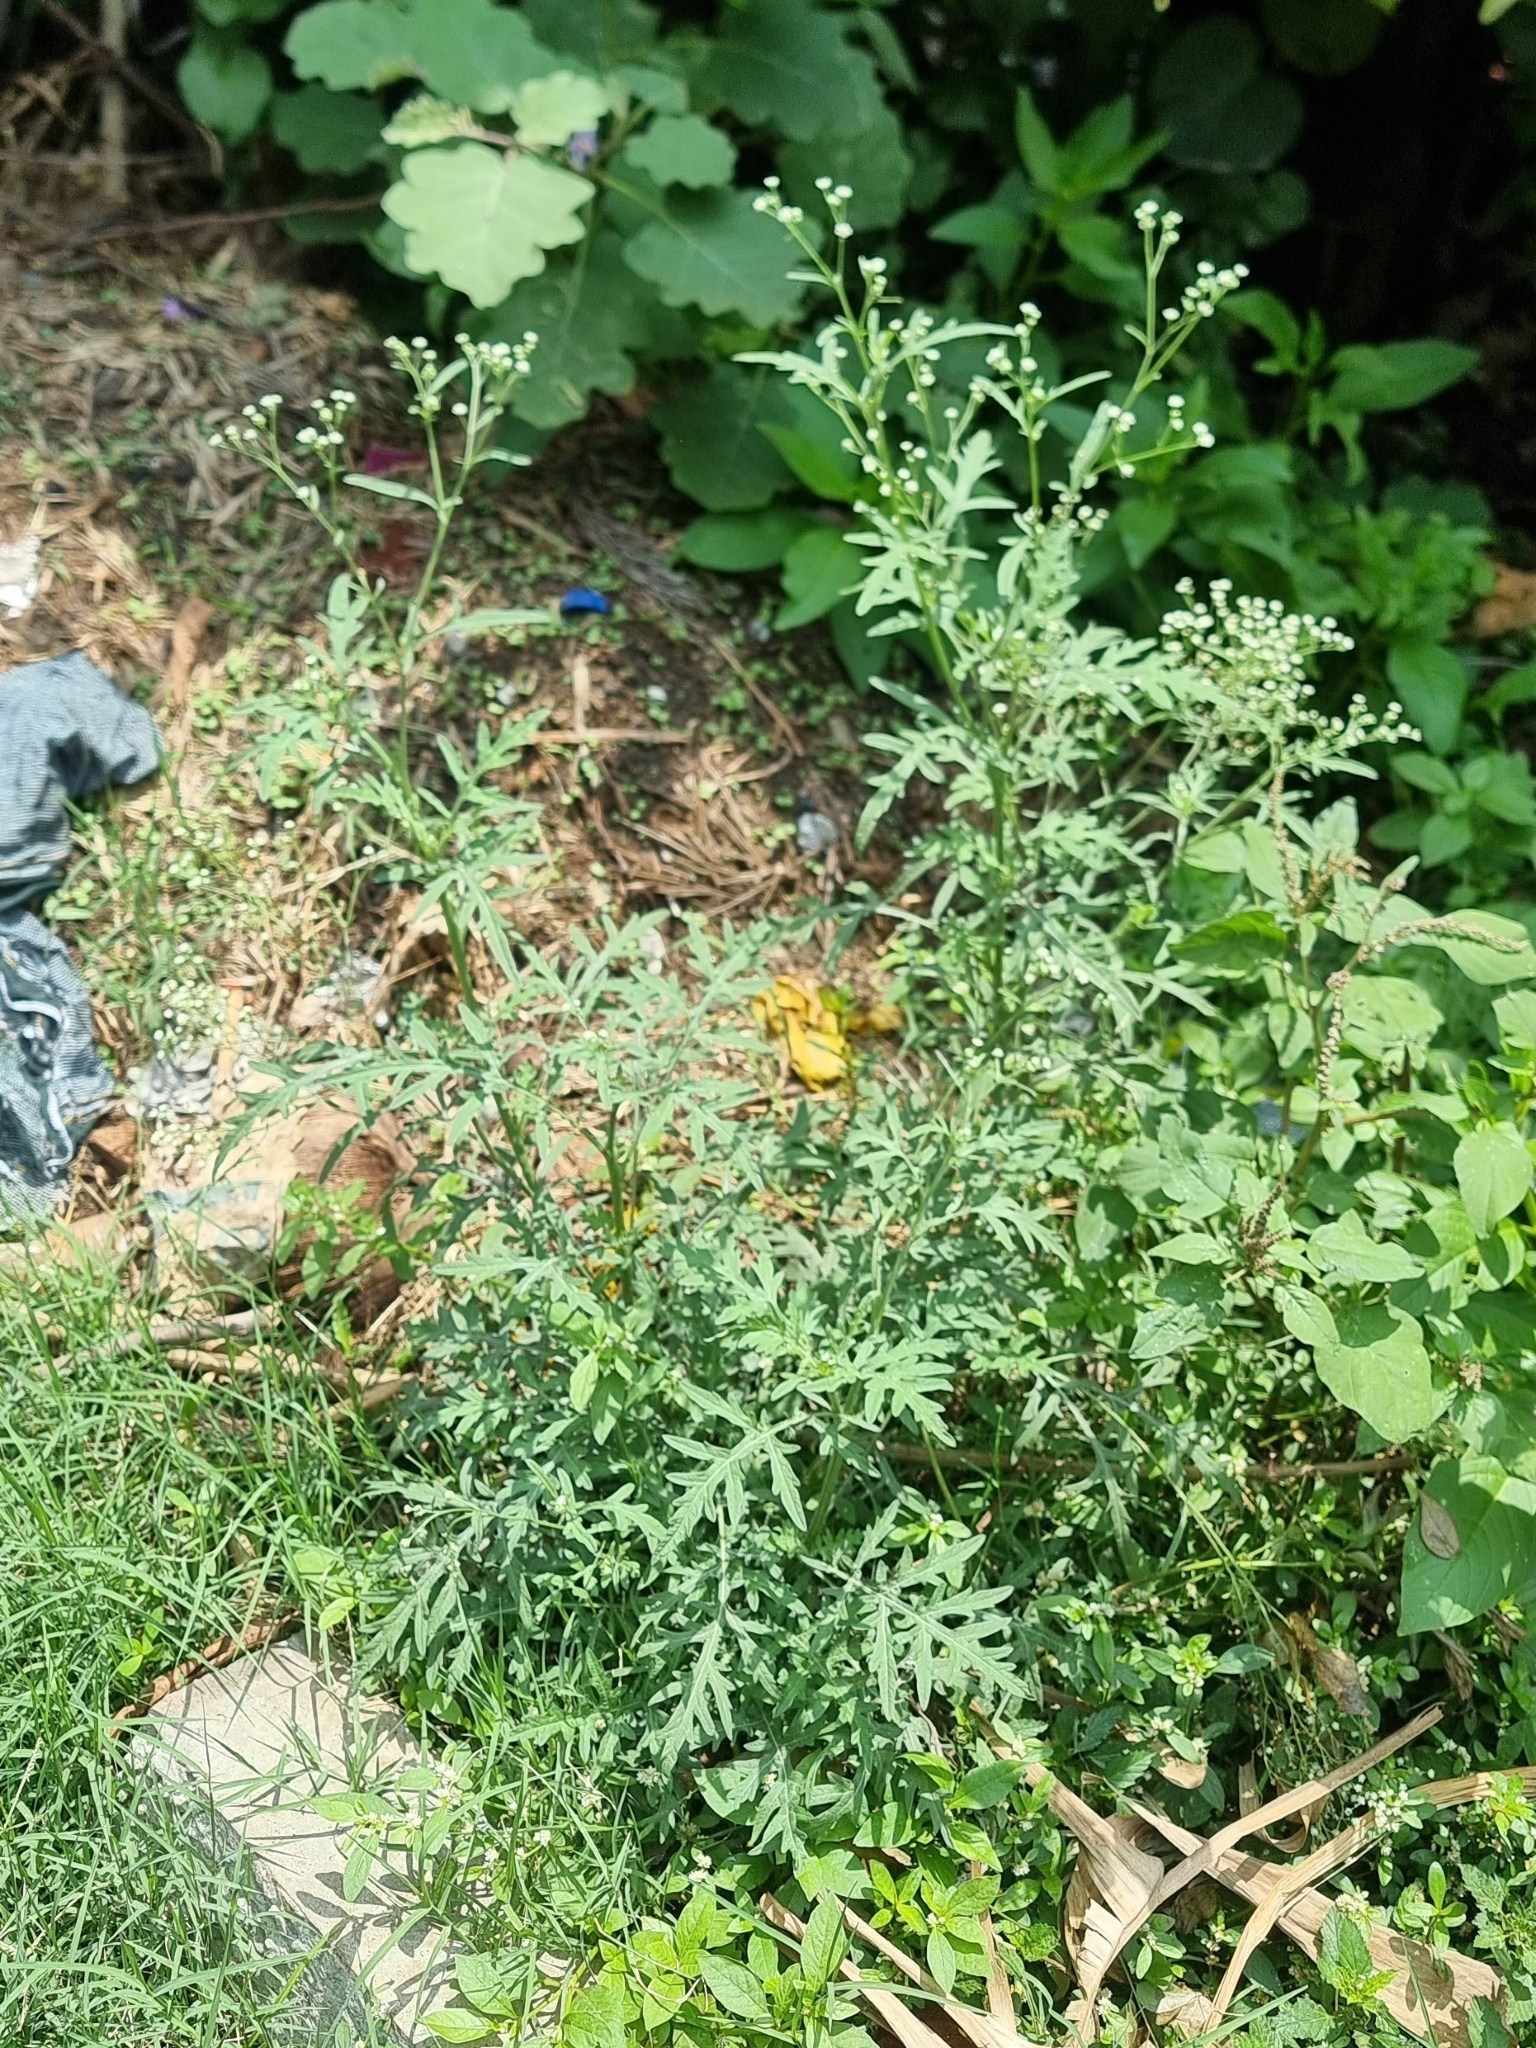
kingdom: Plantae
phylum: Tracheophyta
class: Magnoliopsida
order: Asterales
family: Asteraceae
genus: Parthenium
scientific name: Parthenium hysterophorus
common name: Santa maria feverfew
